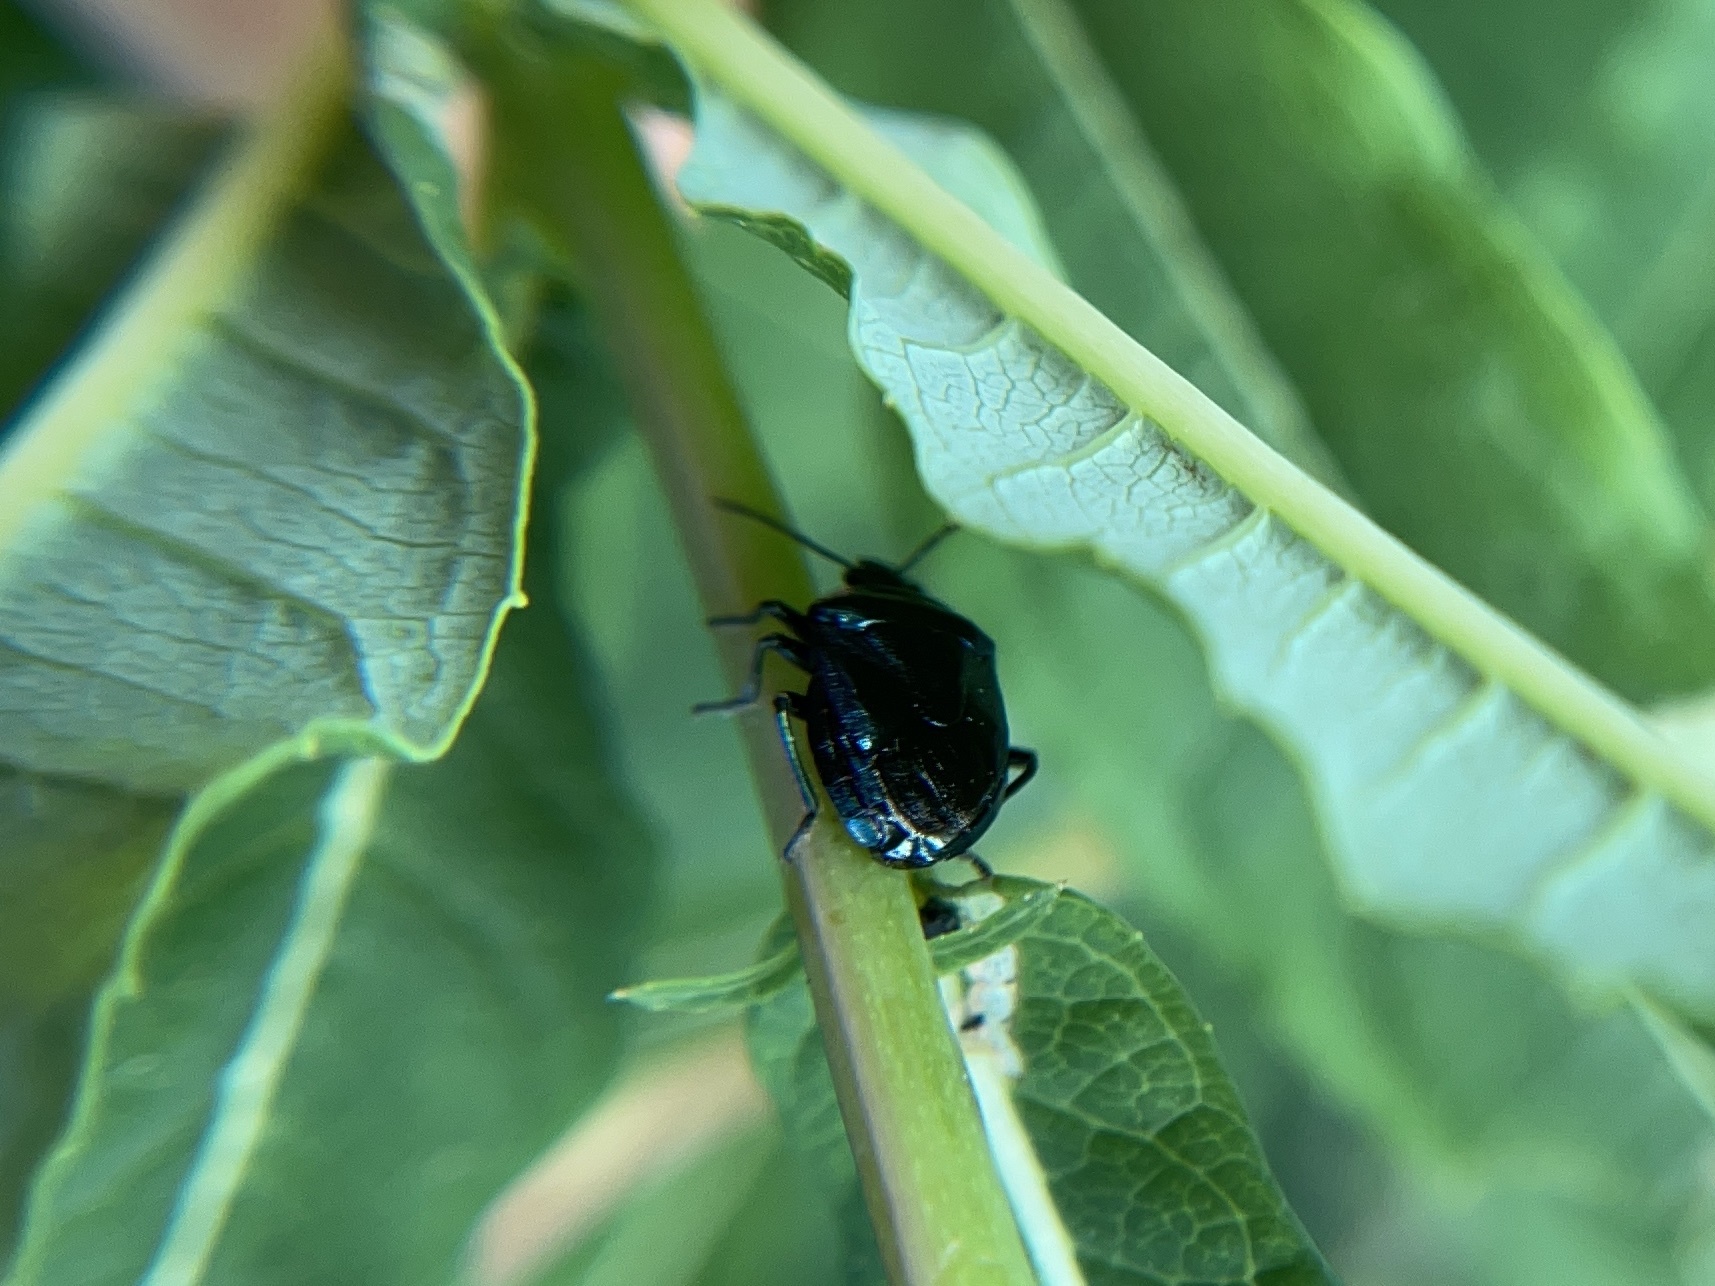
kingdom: Animalia
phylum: Arthropoda
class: Insecta
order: Hemiptera
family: Pentatomidae
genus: Zicrona
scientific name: Zicrona caerulea
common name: Blue shieldbug
